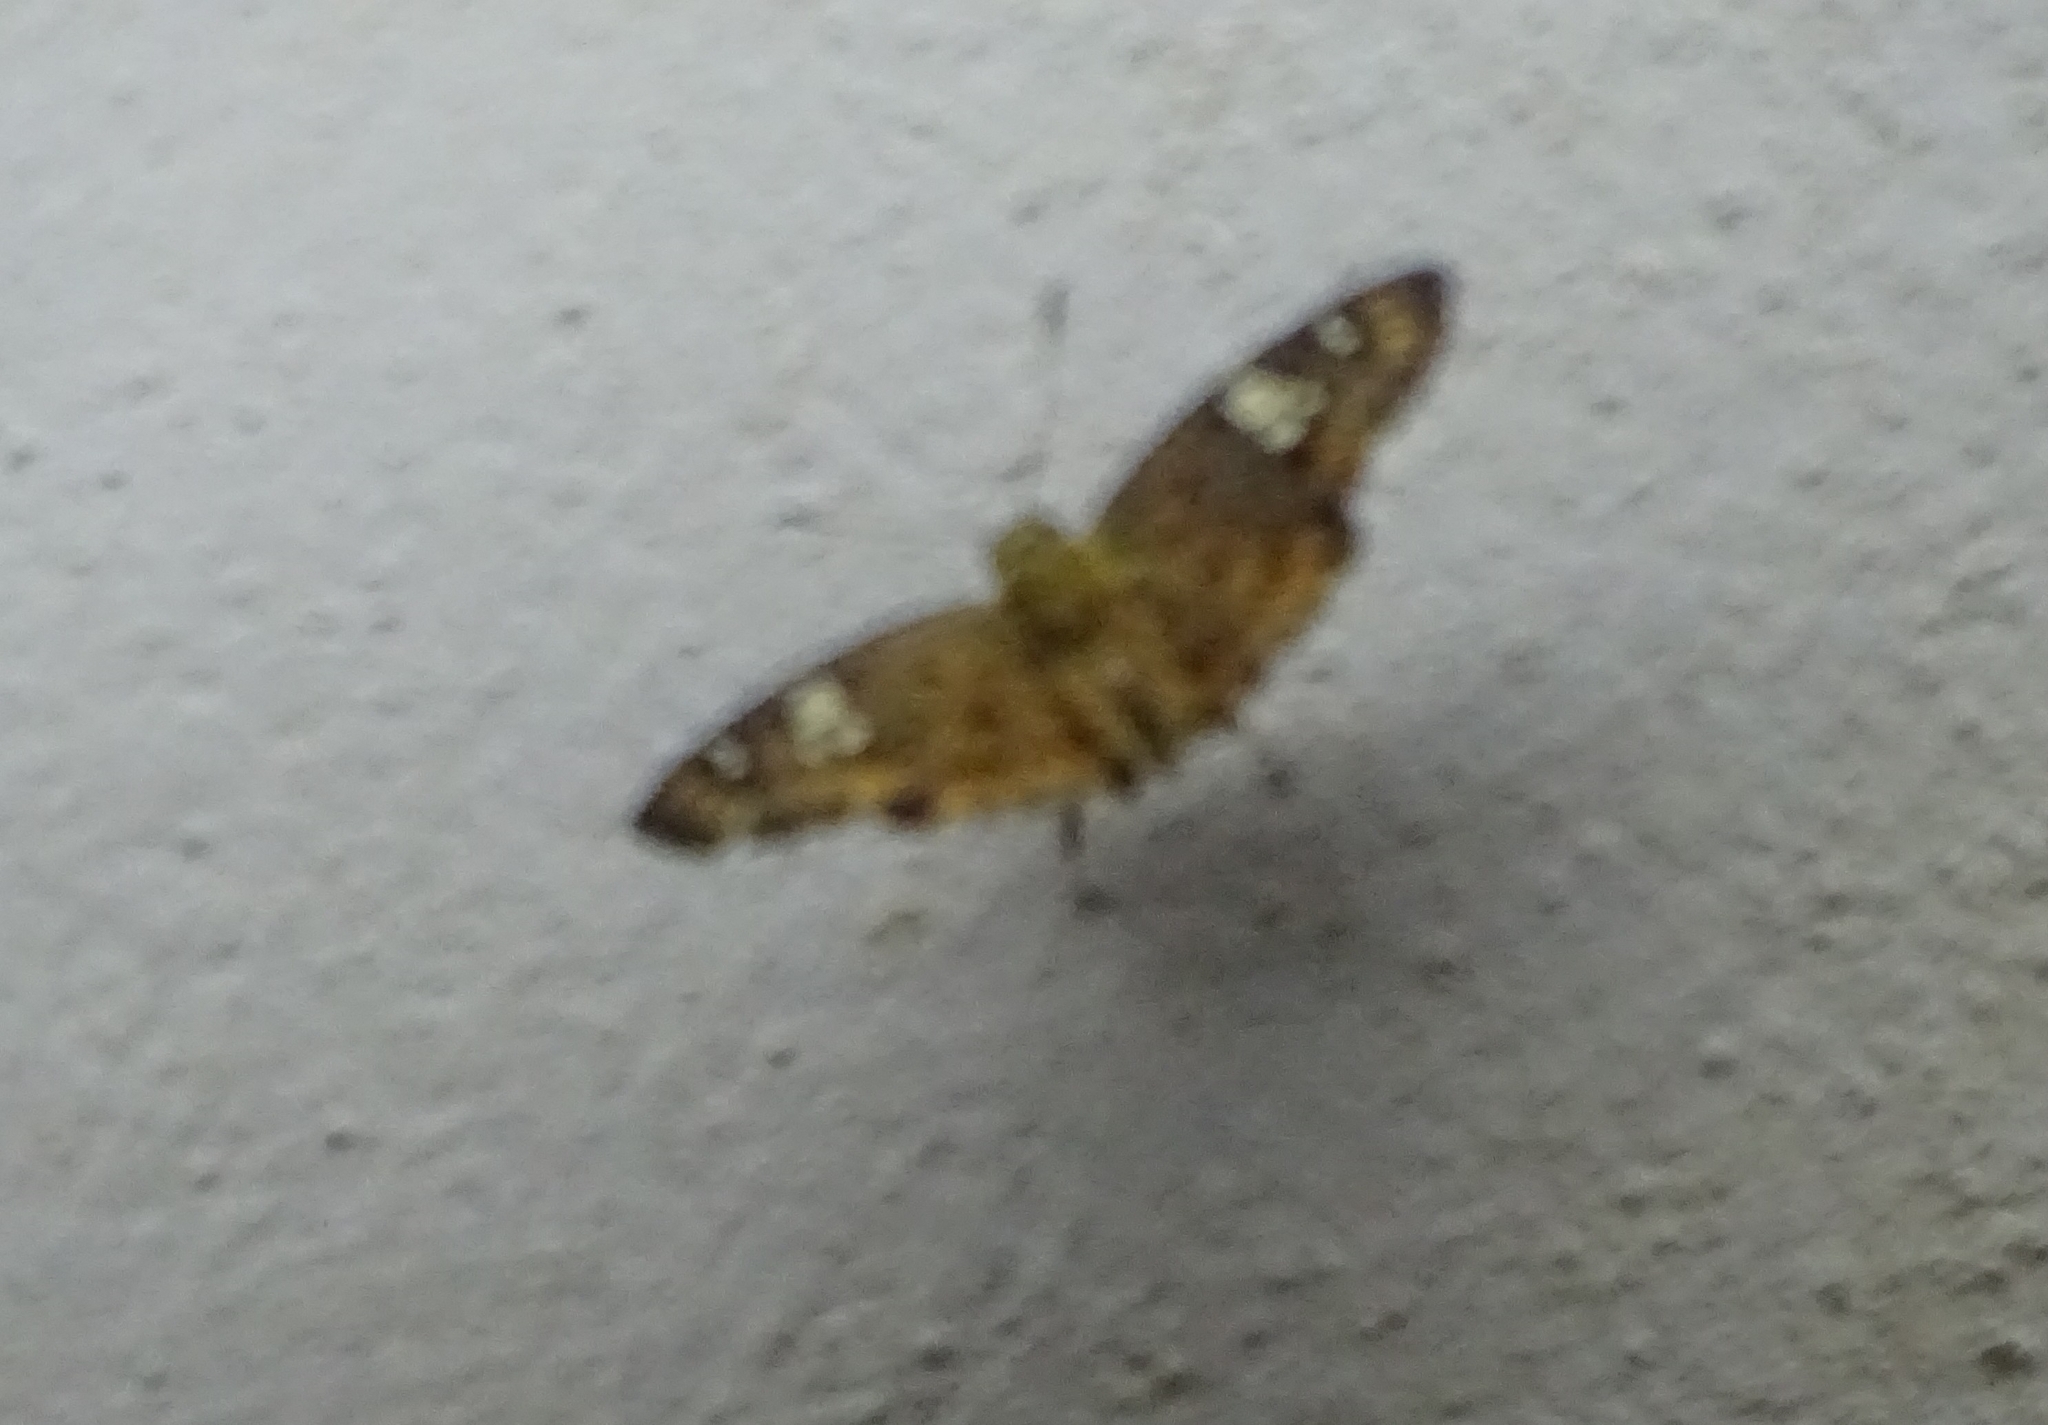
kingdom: Animalia
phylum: Arthropoda
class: Insecta
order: Lepidoptera
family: Hesperiidae
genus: Coladenia
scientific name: Coladenia
